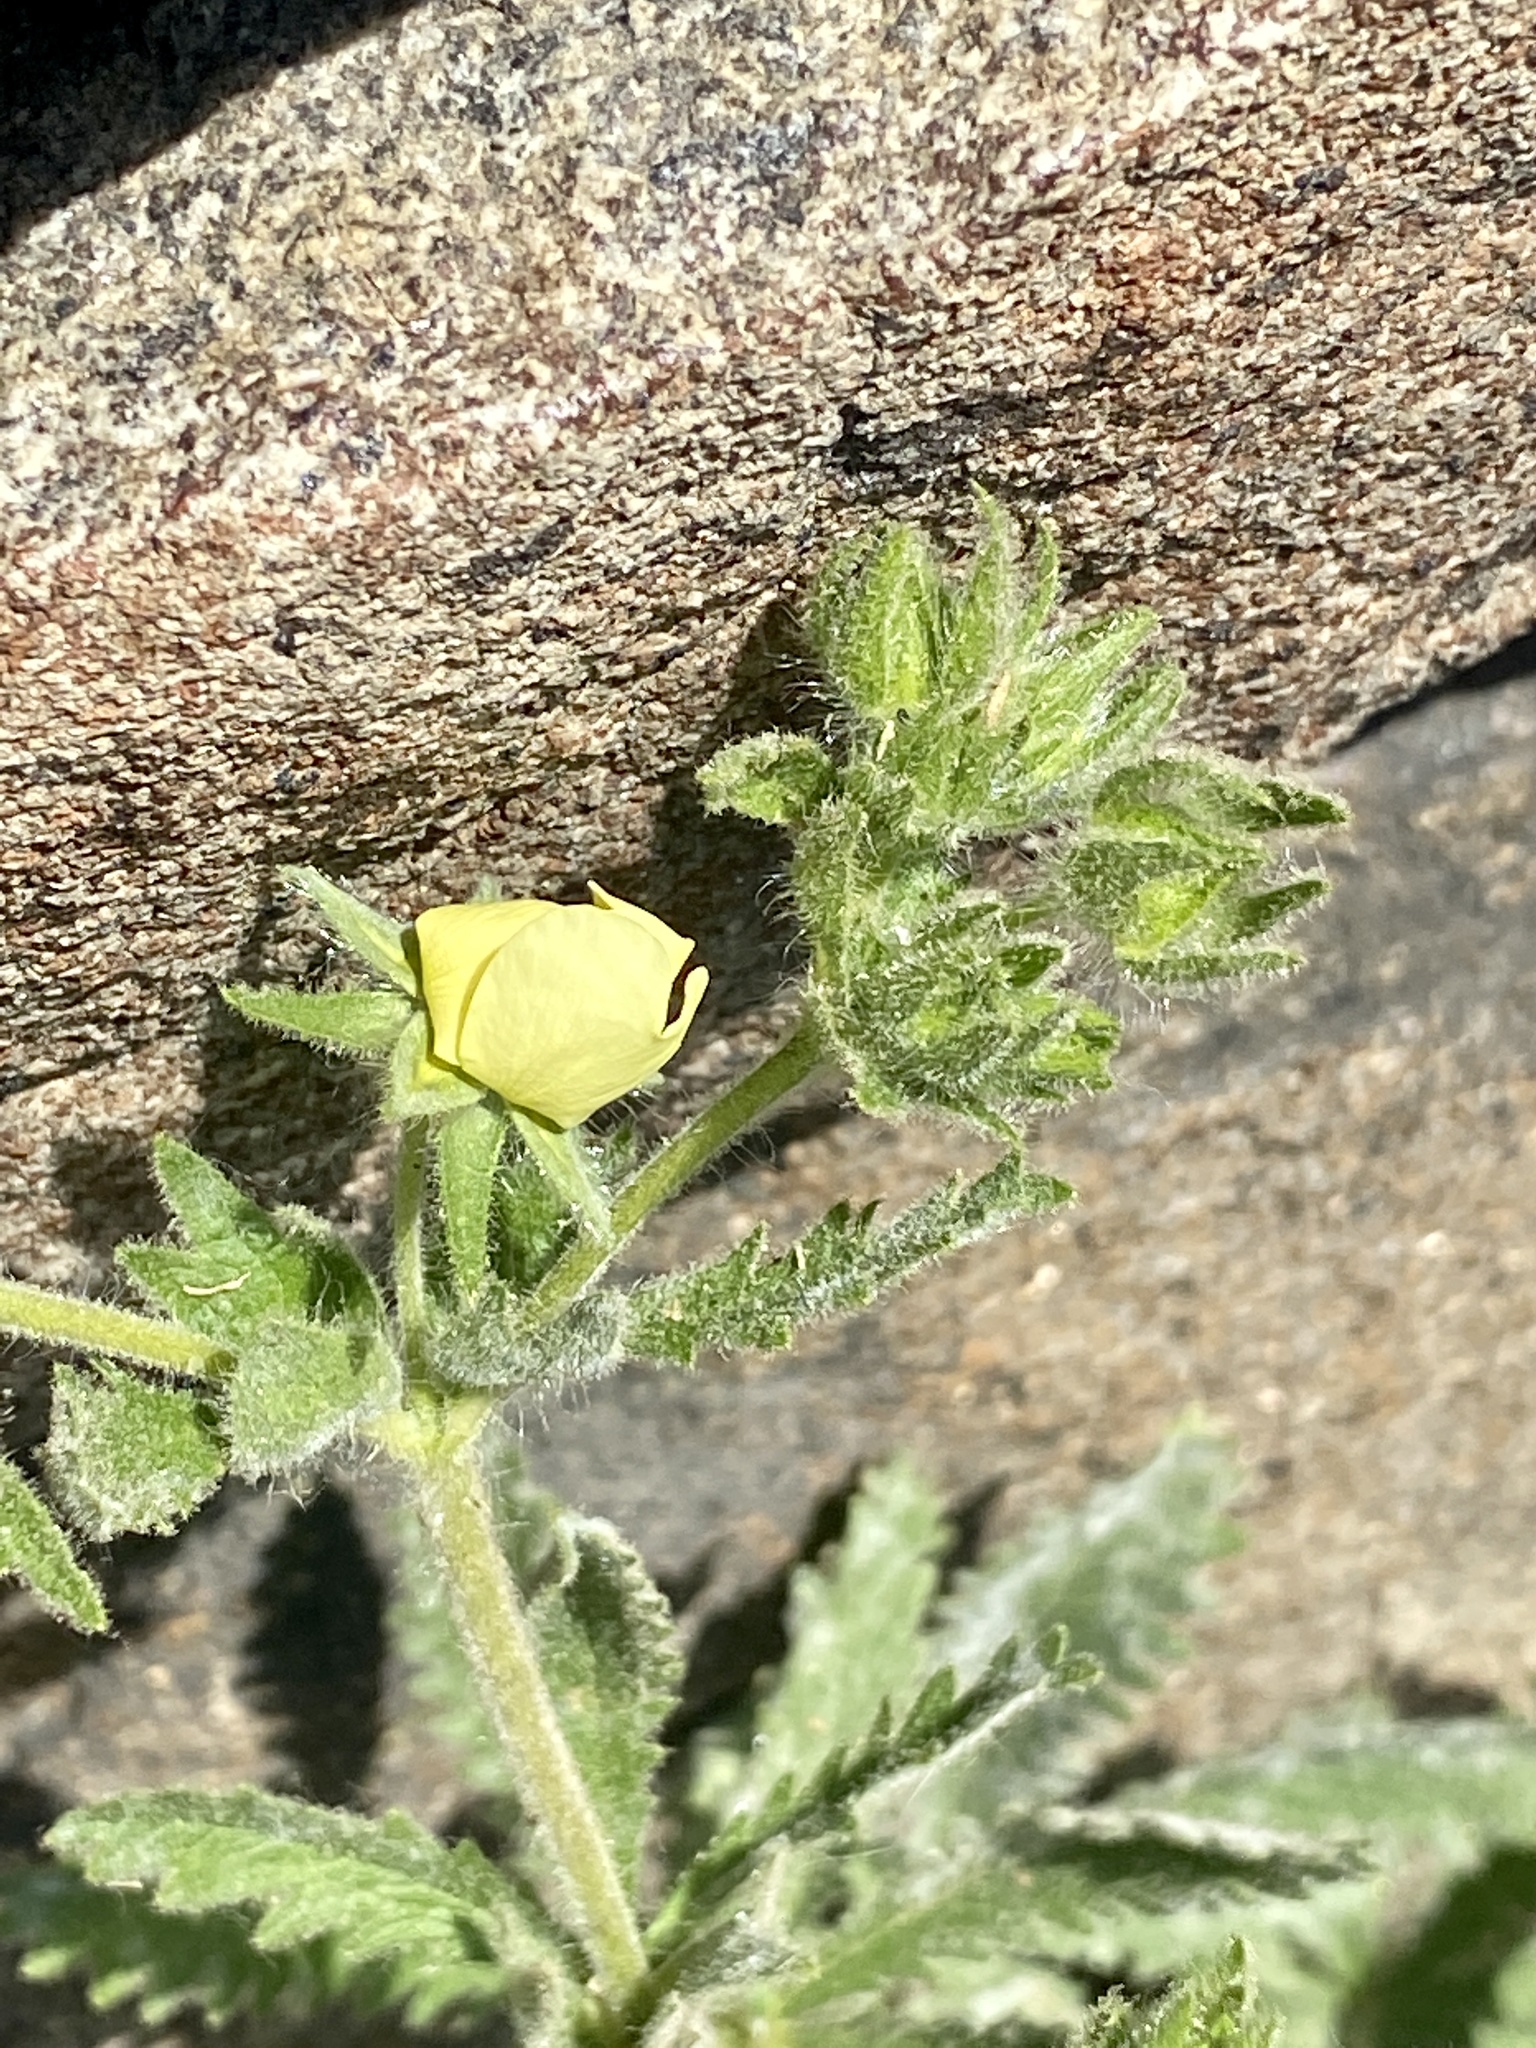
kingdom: Plantae
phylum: Tracheophyta
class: Magnoliopsida
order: Rosales
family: Rosaceae
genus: Potentilla
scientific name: Potentilla recta
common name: Sulphur cinquefoil
